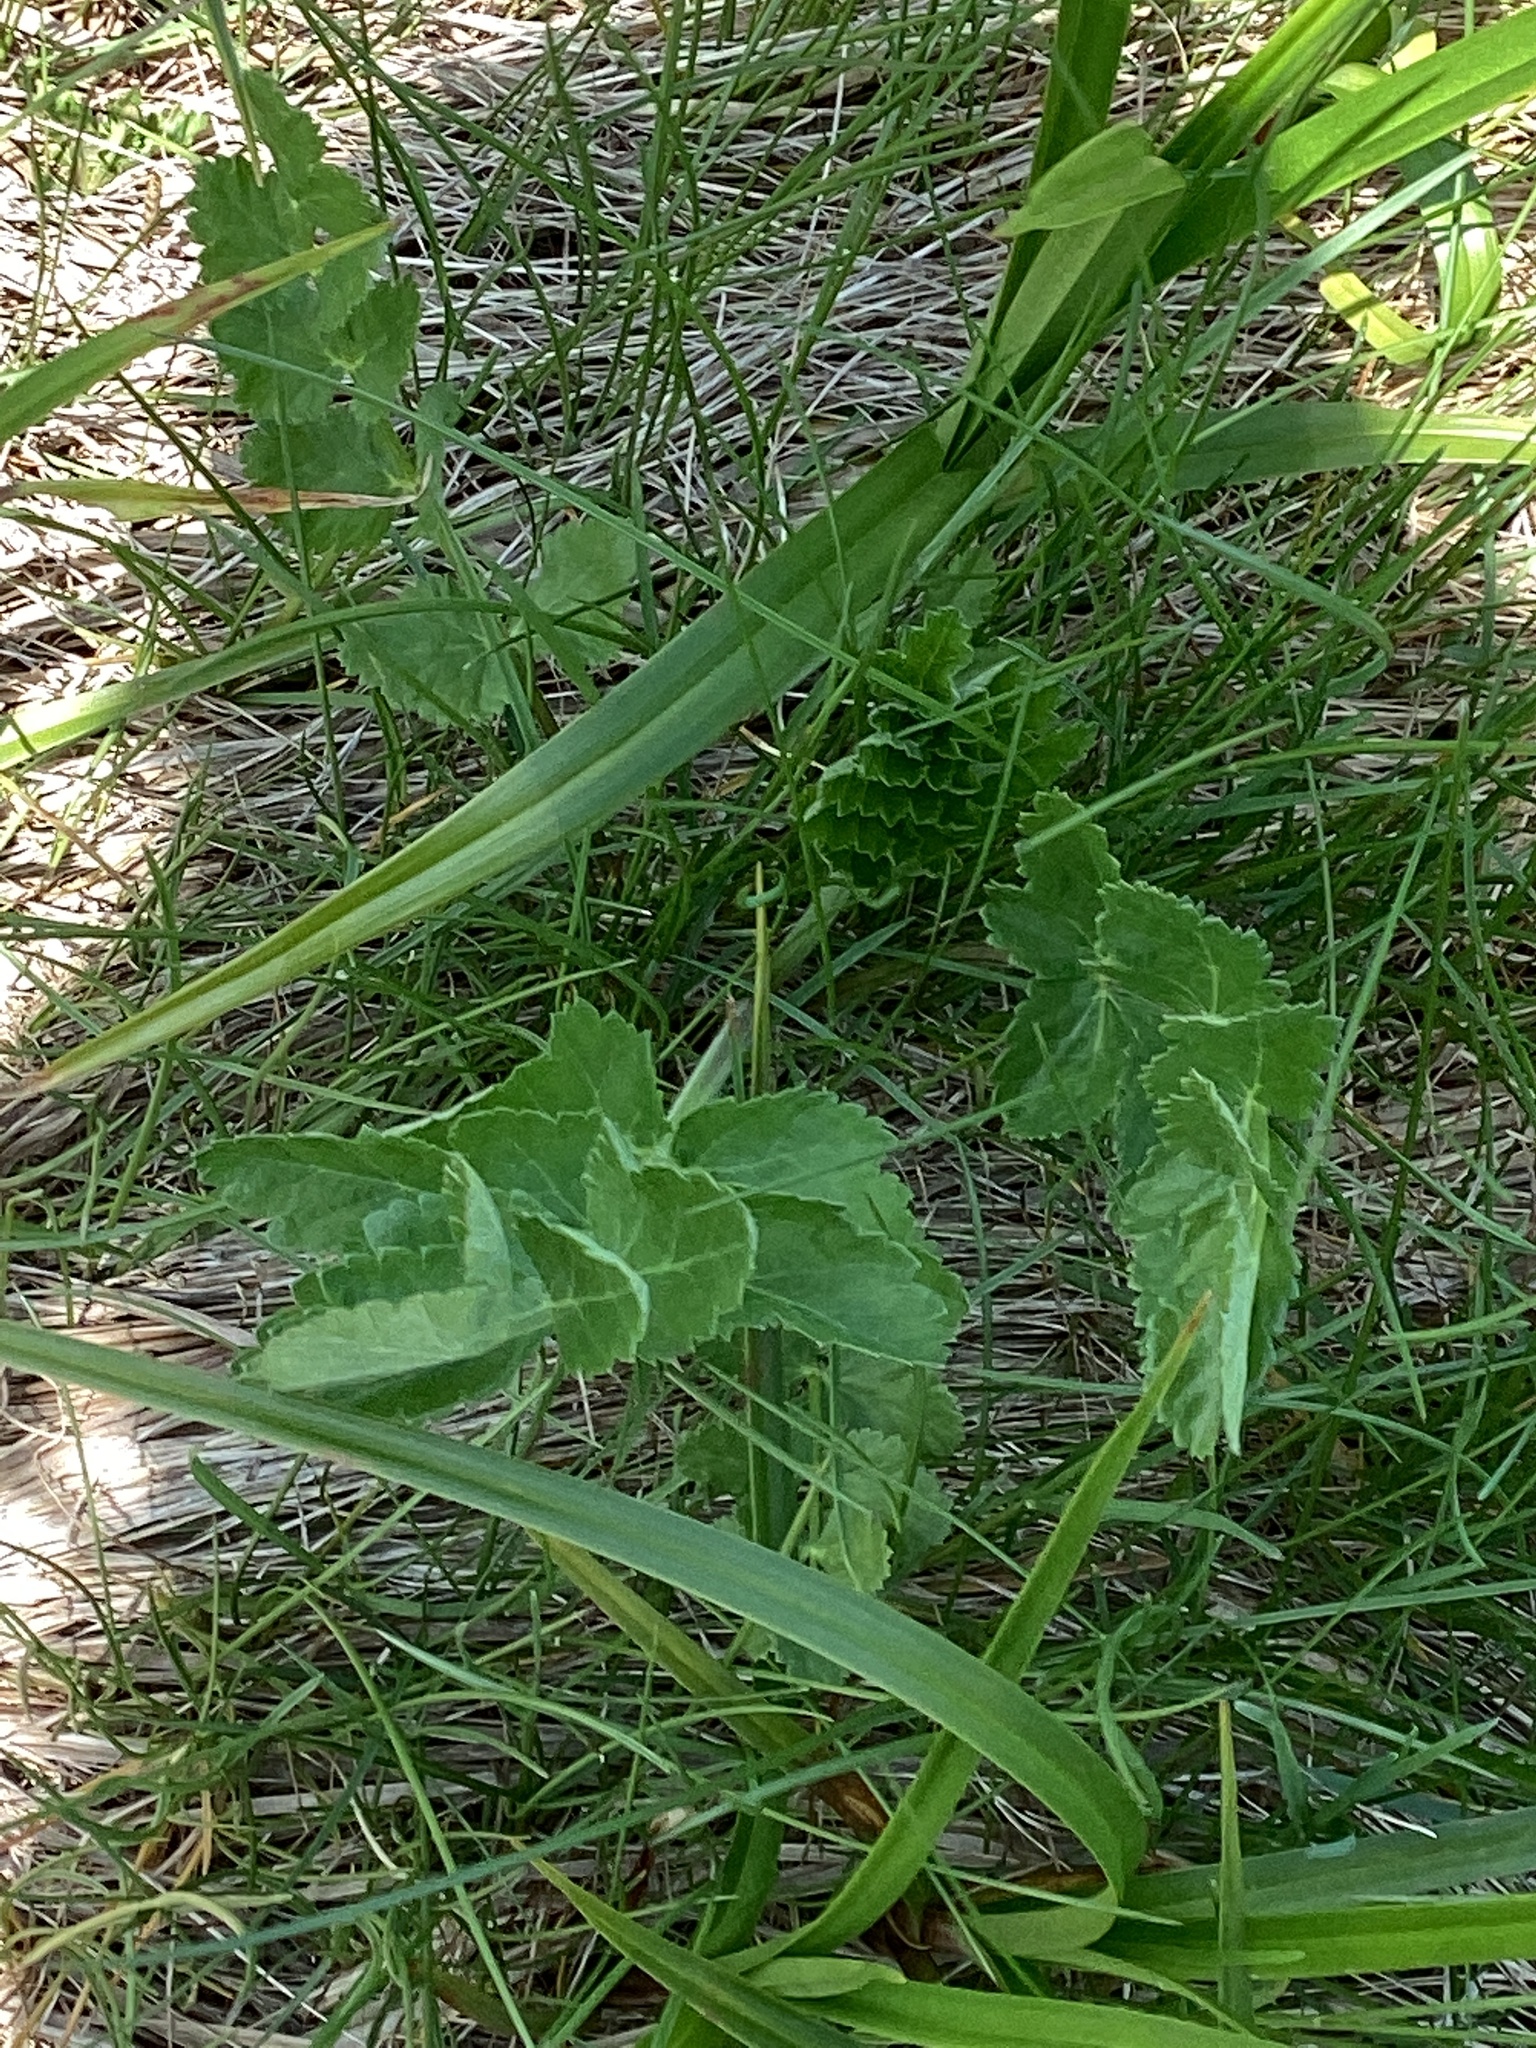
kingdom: Plantae
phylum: Tracheophyta
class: Magnoliopsida
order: Apiales
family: Apiaceae
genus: Pastinaca
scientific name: Pastinaca sativa
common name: Wild parsnip
